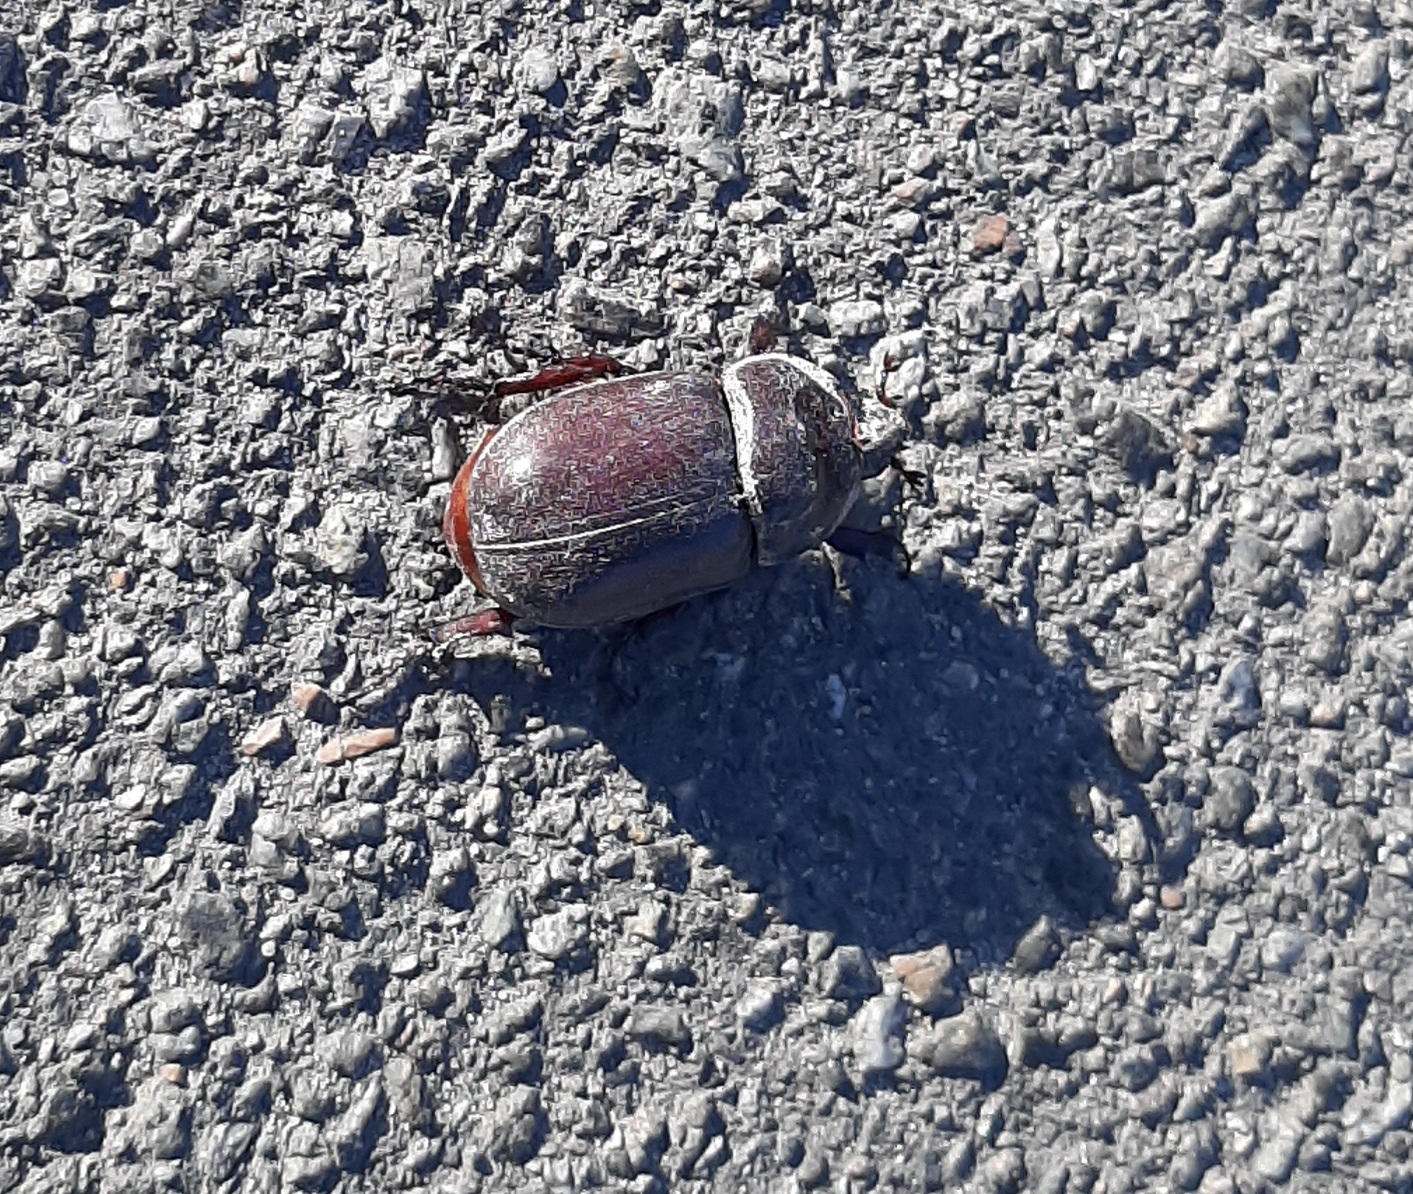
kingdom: Animalia
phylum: Arthropoda
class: Insecta
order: Coleoptera
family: Scarabaeidae
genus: Oryctes
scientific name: Oryctes nasicornis
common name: European rhinoceros beetle
